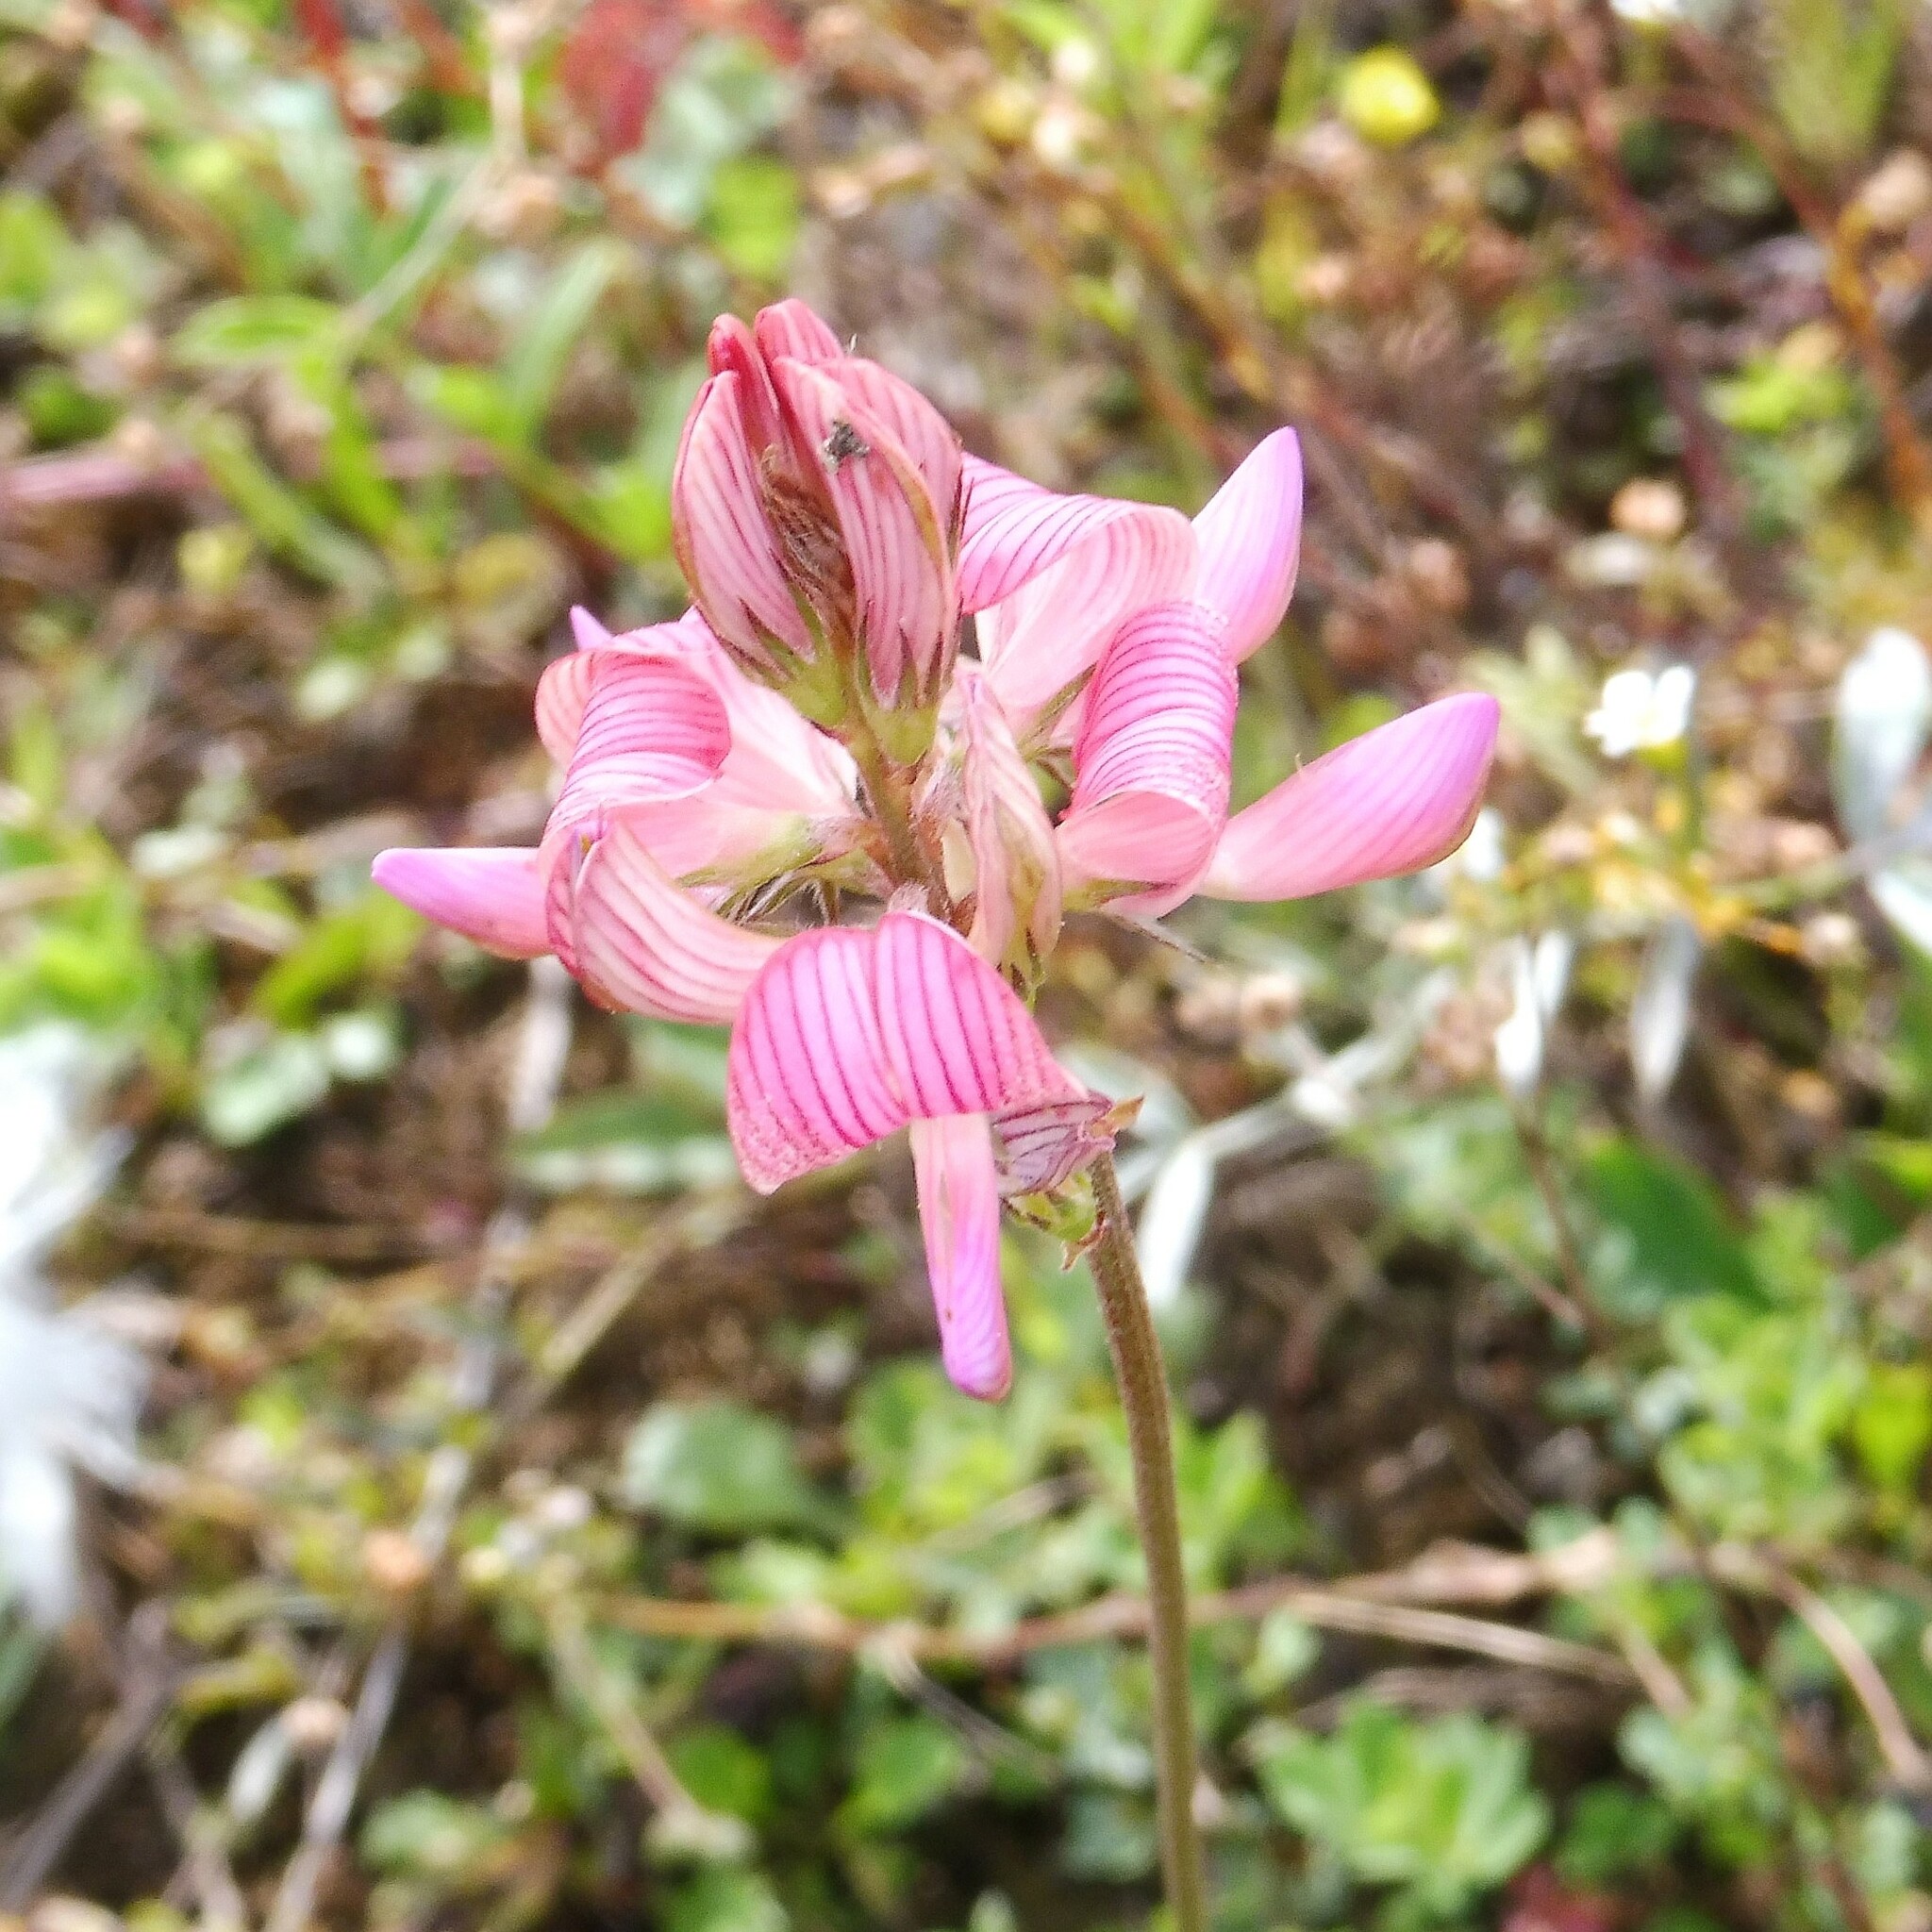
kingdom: Plantae
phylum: Tracheophyta
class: Magnoliopsida
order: Fabales
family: Fabaceae
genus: Onobrychis
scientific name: Onobrychis viciifolia
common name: Sainfoin
